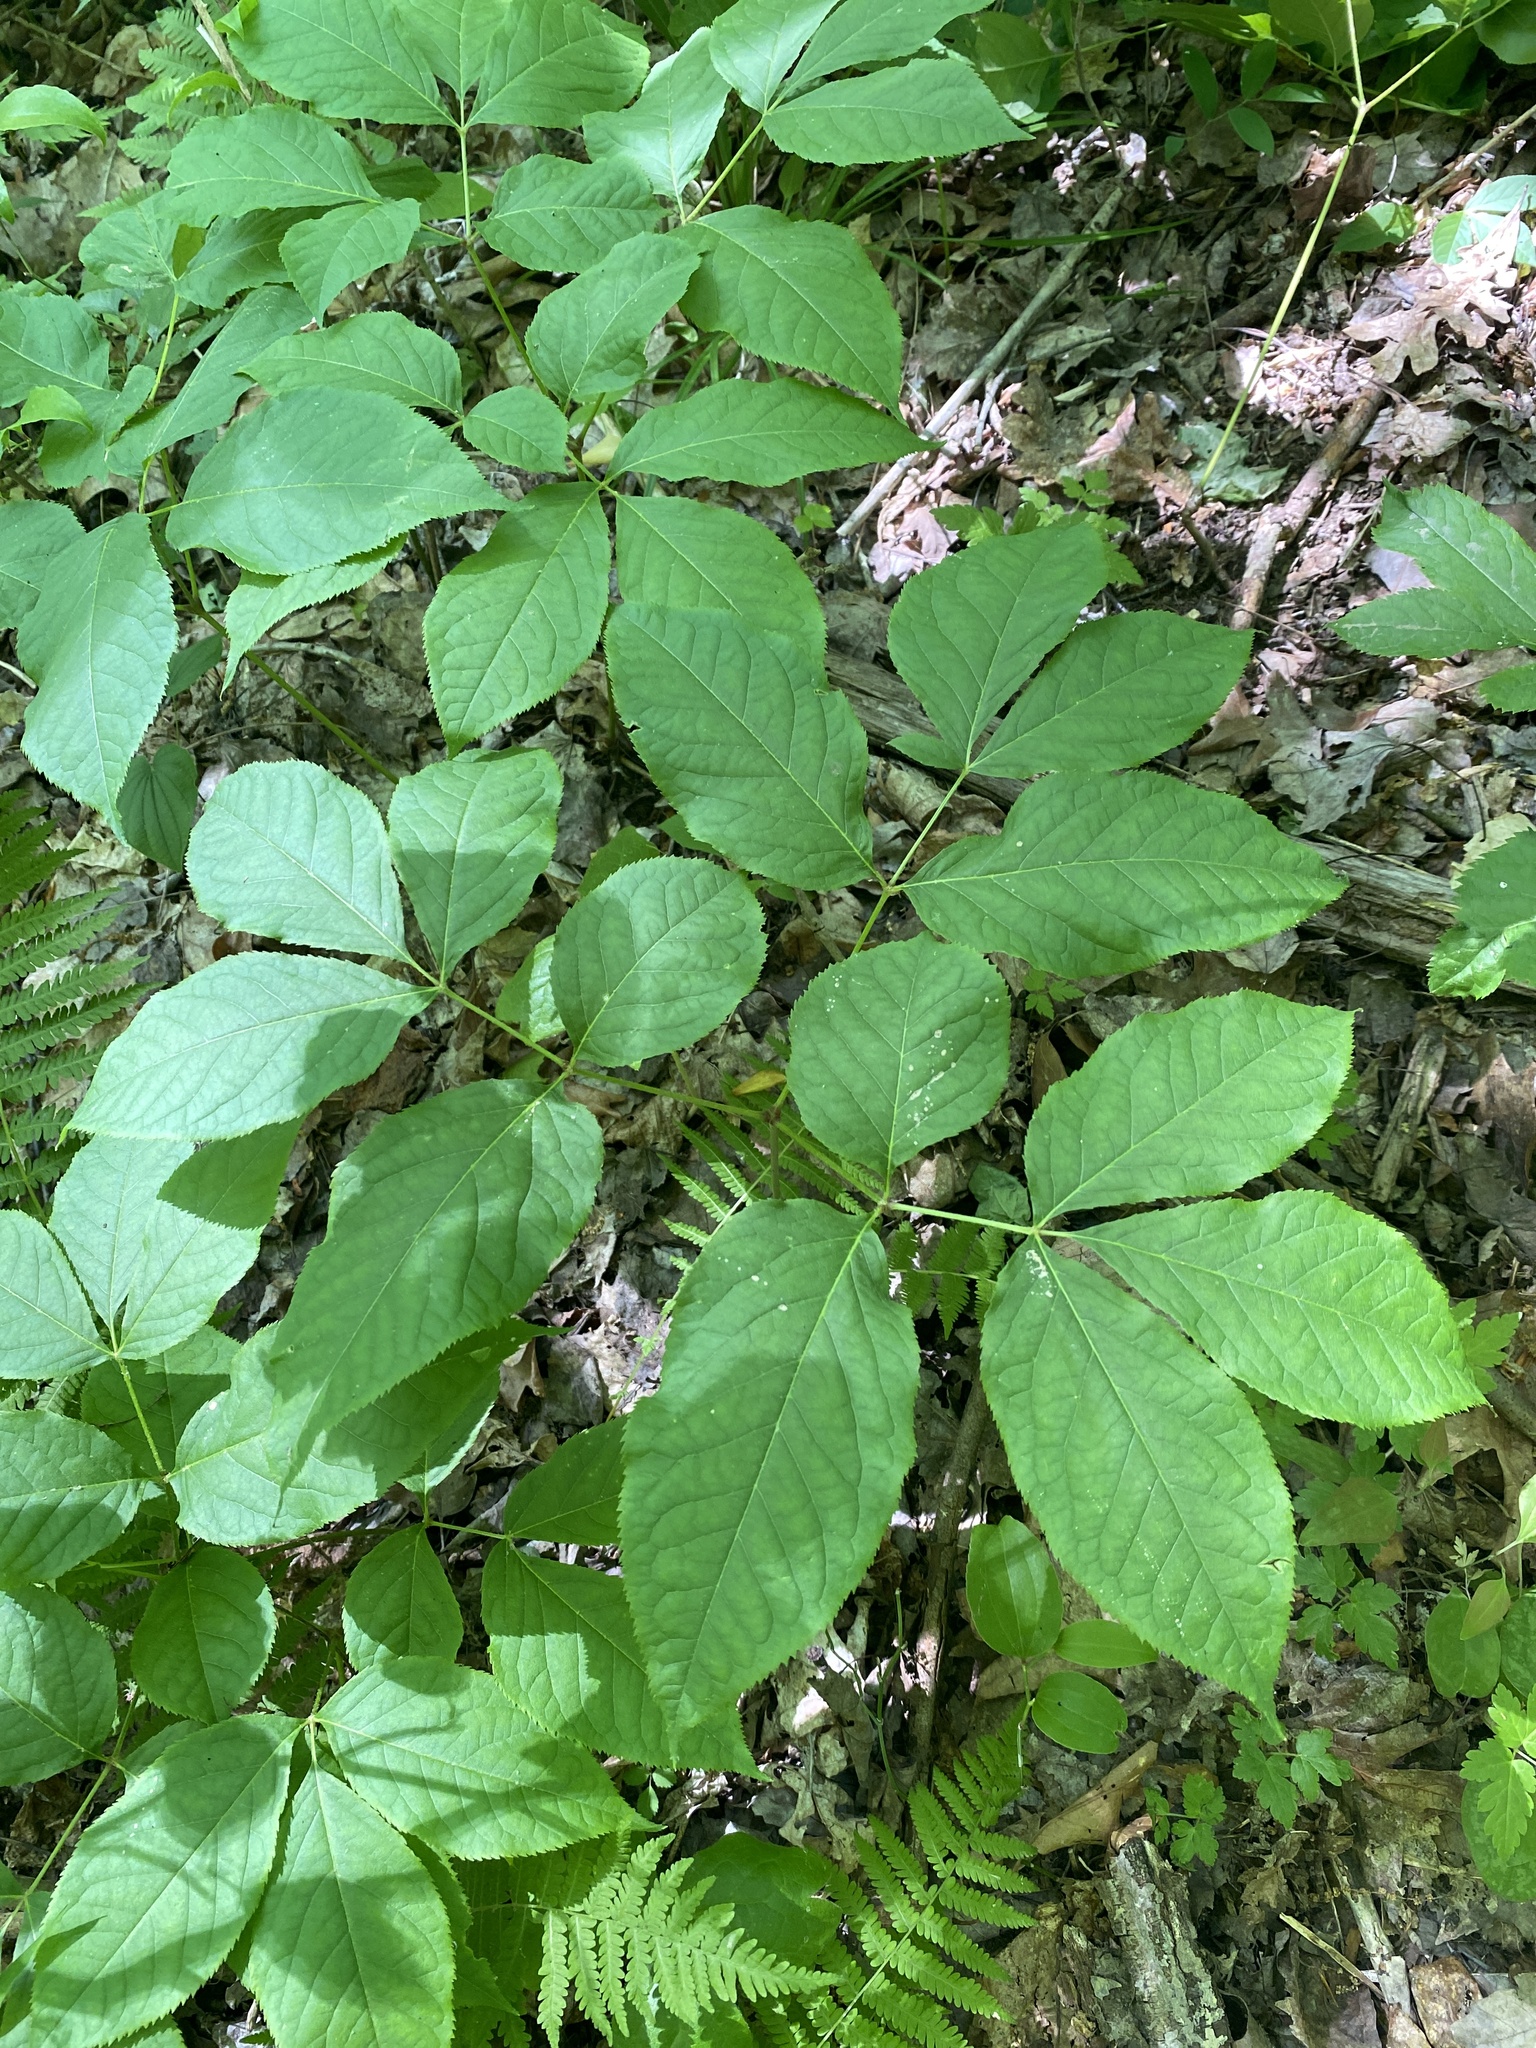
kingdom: Plantae
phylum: Tracheophyta
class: Magnoliopsida
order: Apiales
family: Araliaceae
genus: Aralia
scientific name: Aralia nudicaulis
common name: Wild sarsaparilla
